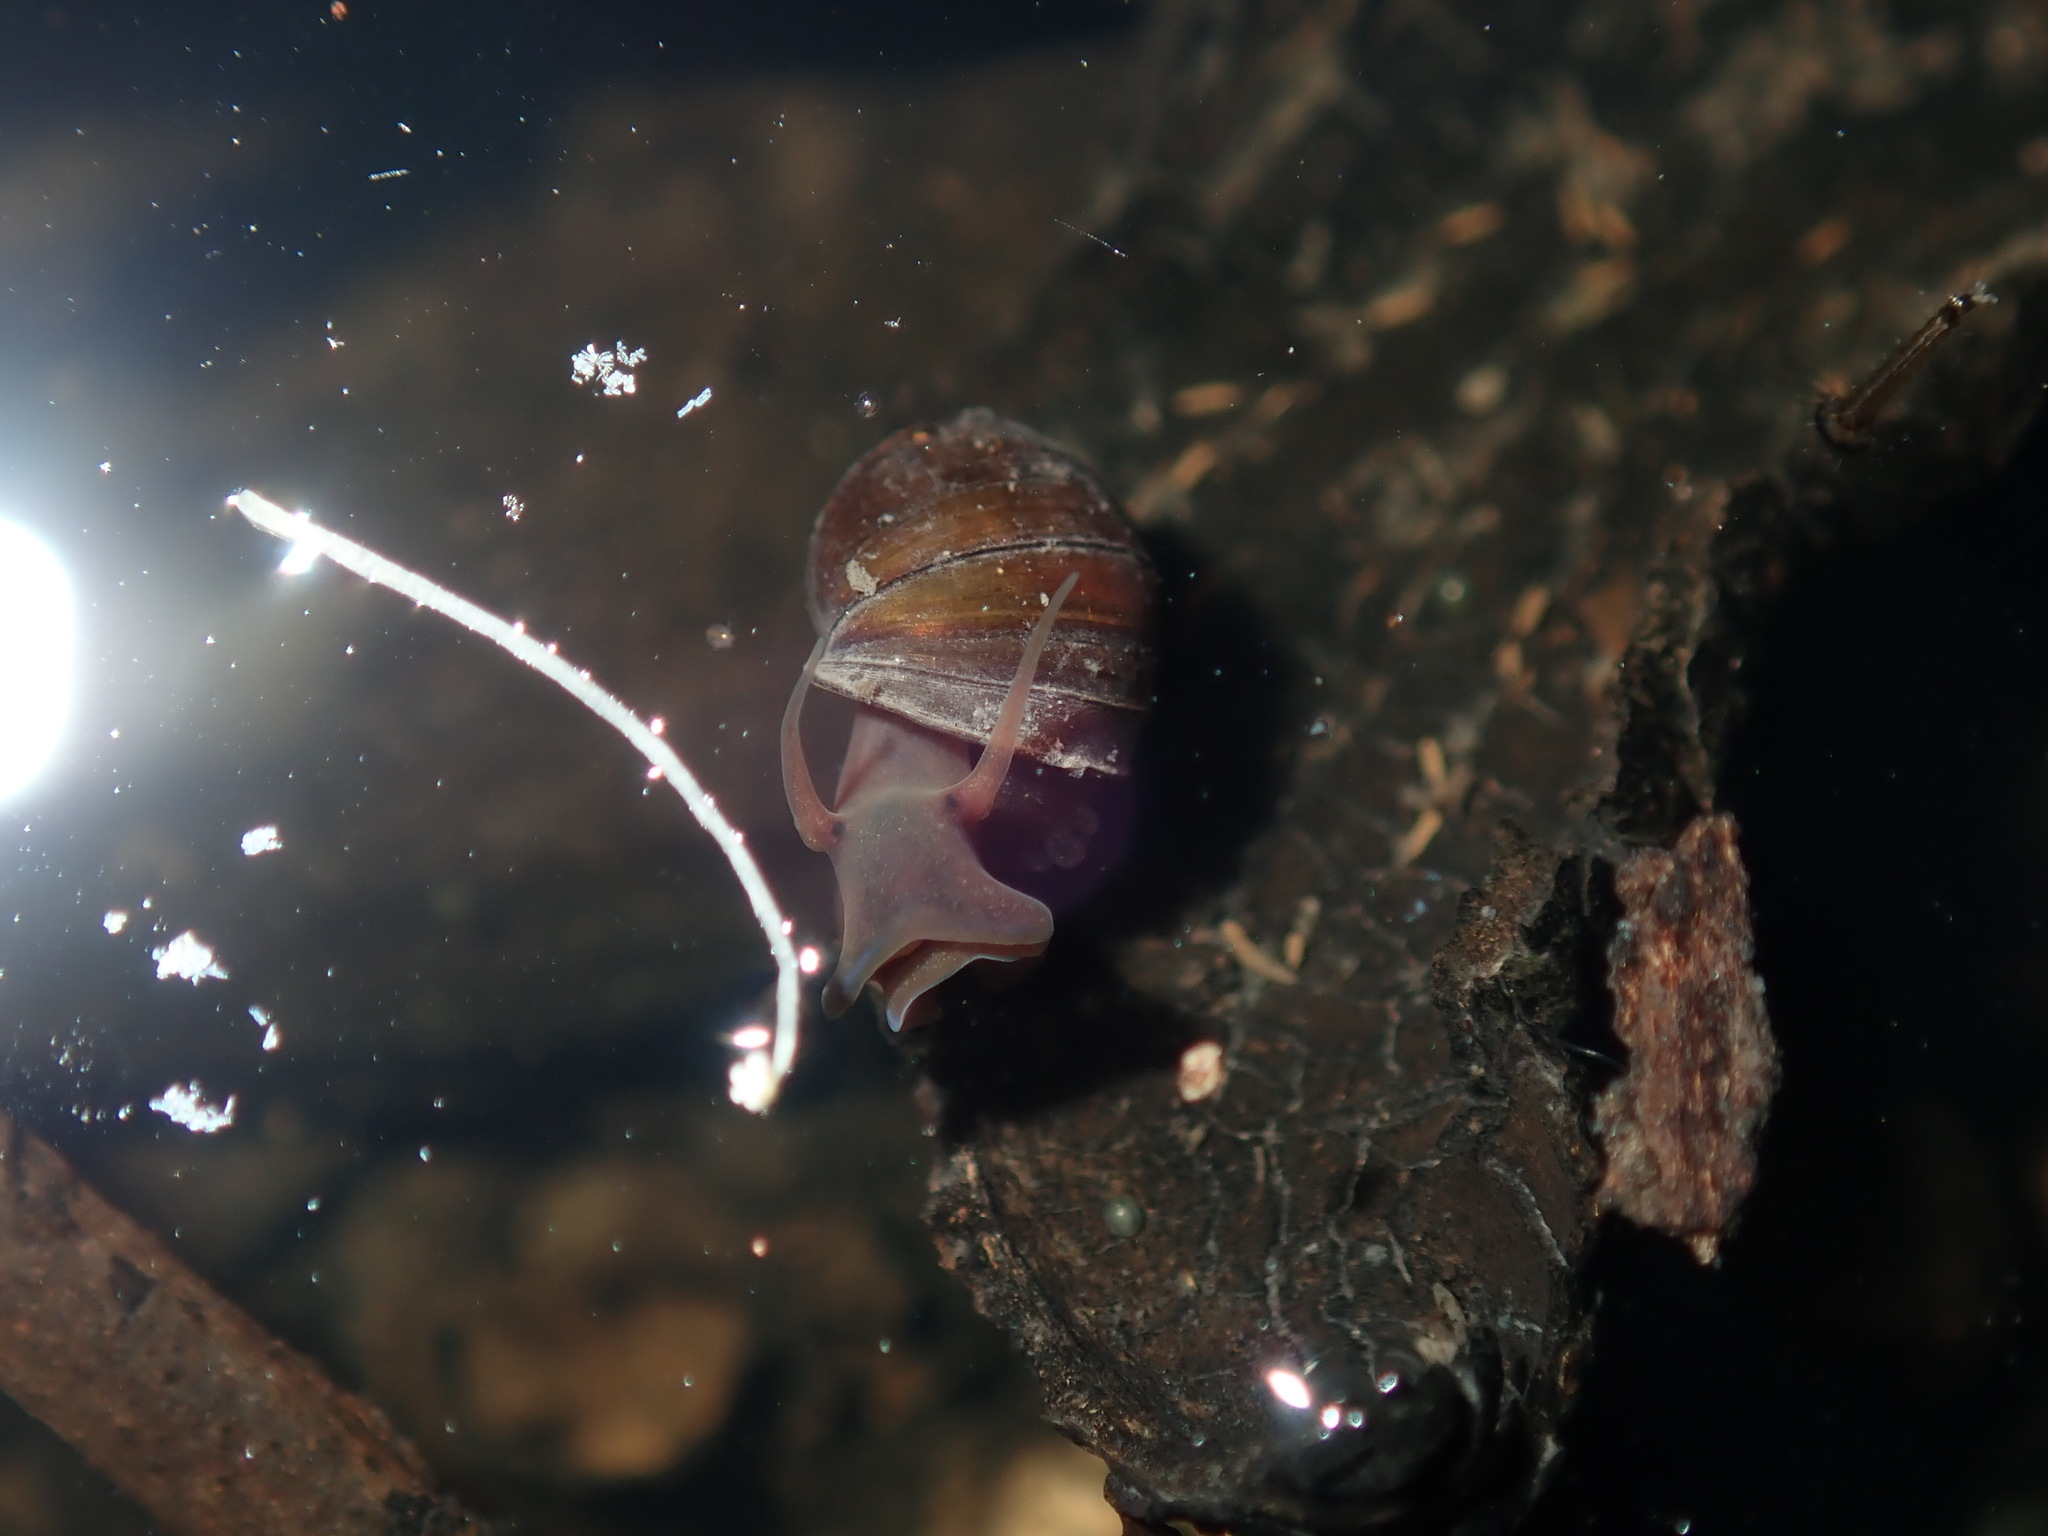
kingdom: Animalia
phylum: Mollusca
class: Gastropoda
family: Planorbidae
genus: Isidorella
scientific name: Isidorella hainesii
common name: Haine’s pouch snail
